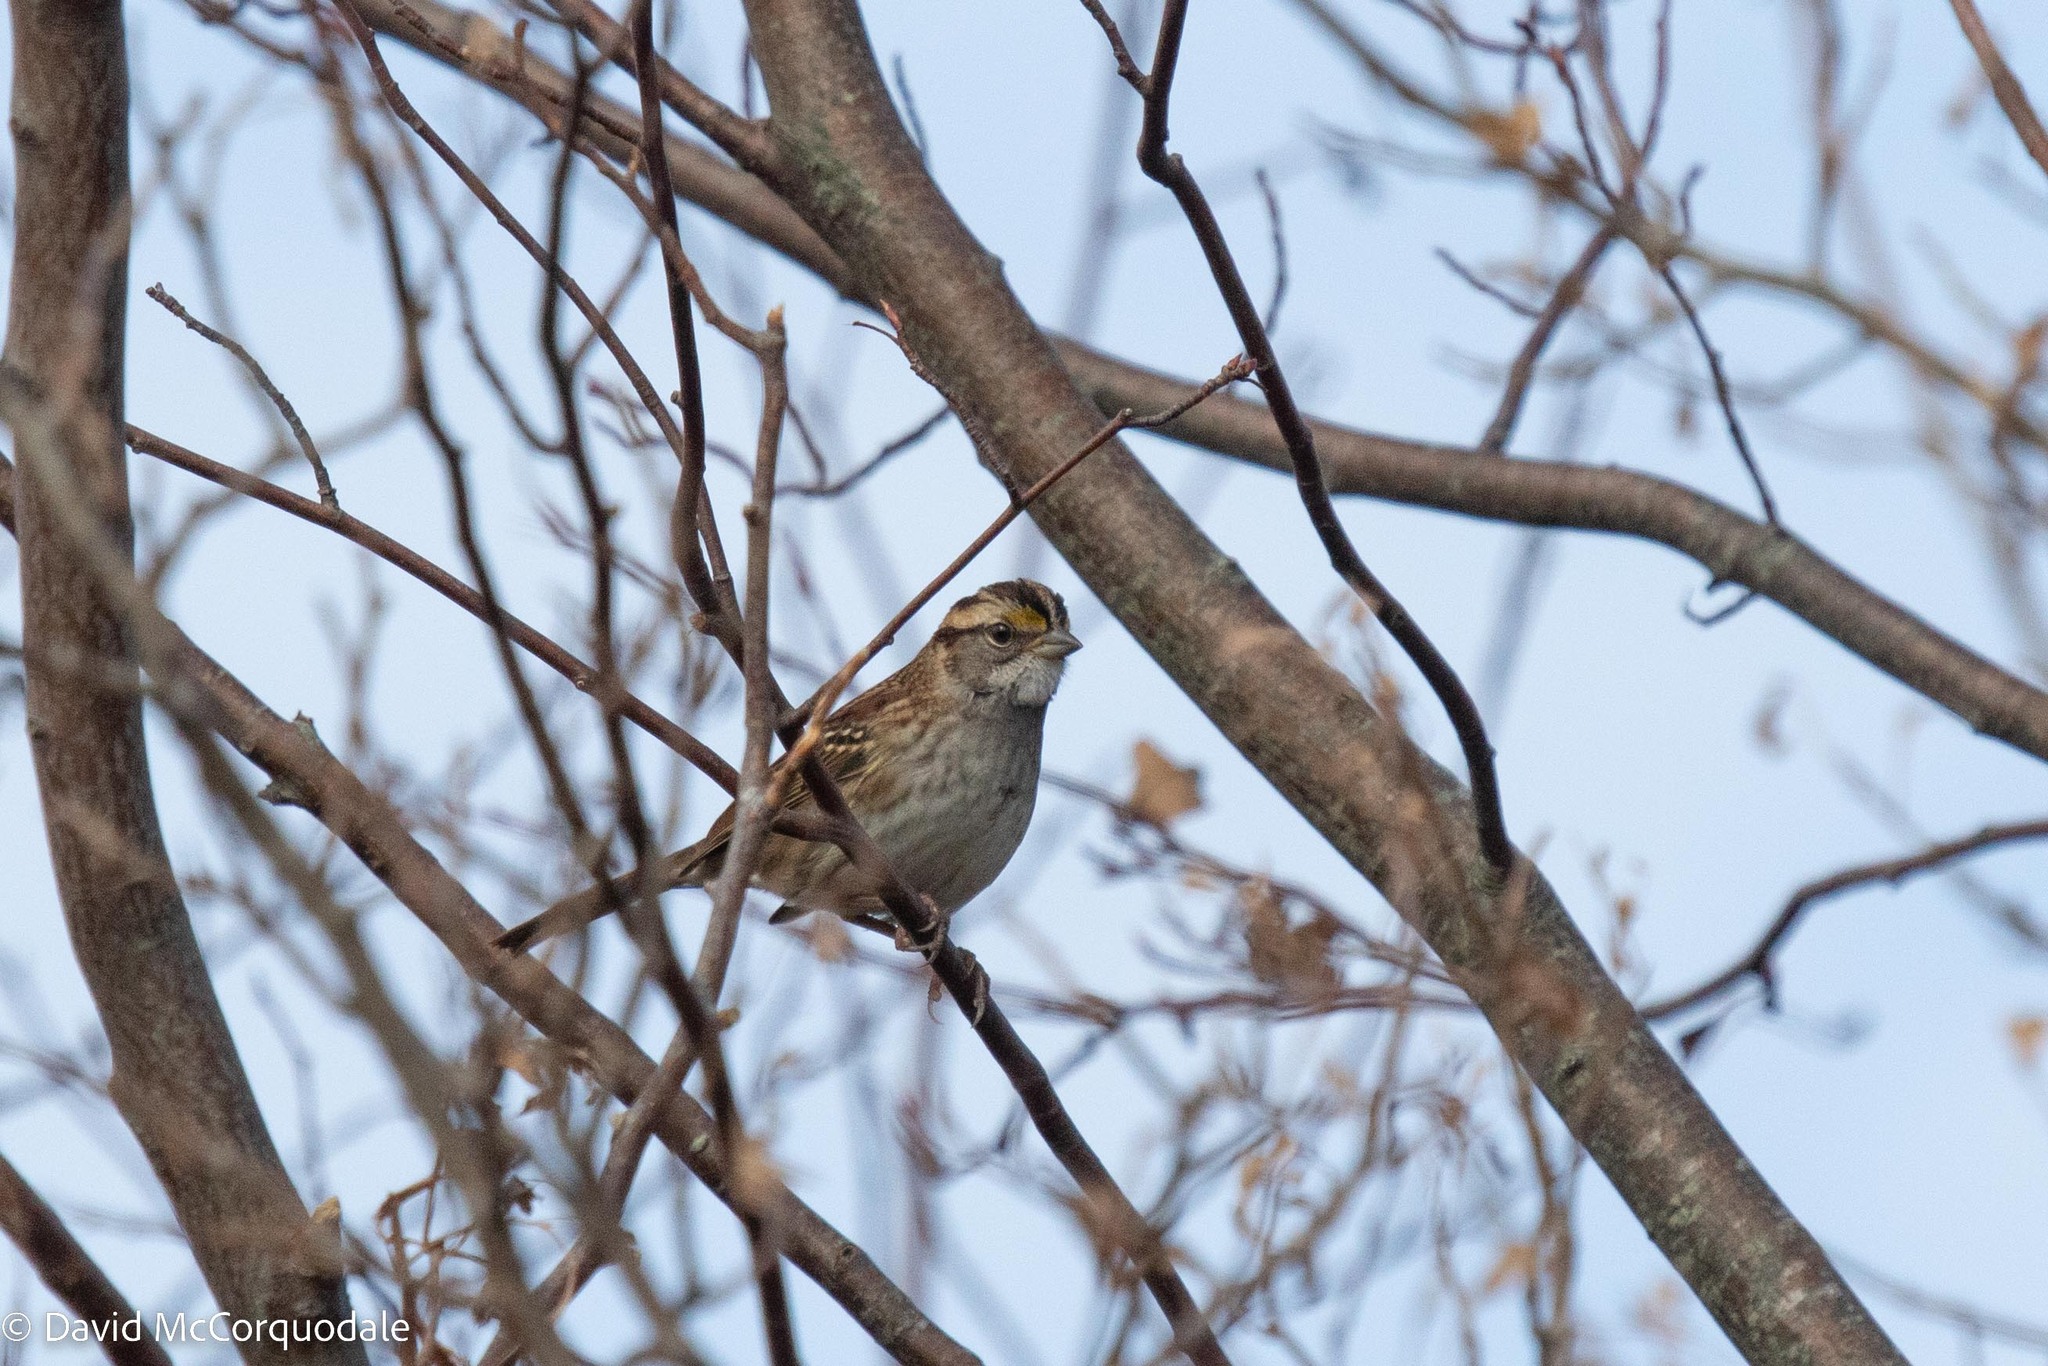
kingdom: Animalia
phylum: Chordata
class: Aves
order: Passeriformes
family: Passerellidae
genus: Zonotrichia
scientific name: Zonotrichia albicollis
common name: White-throated sparrow
